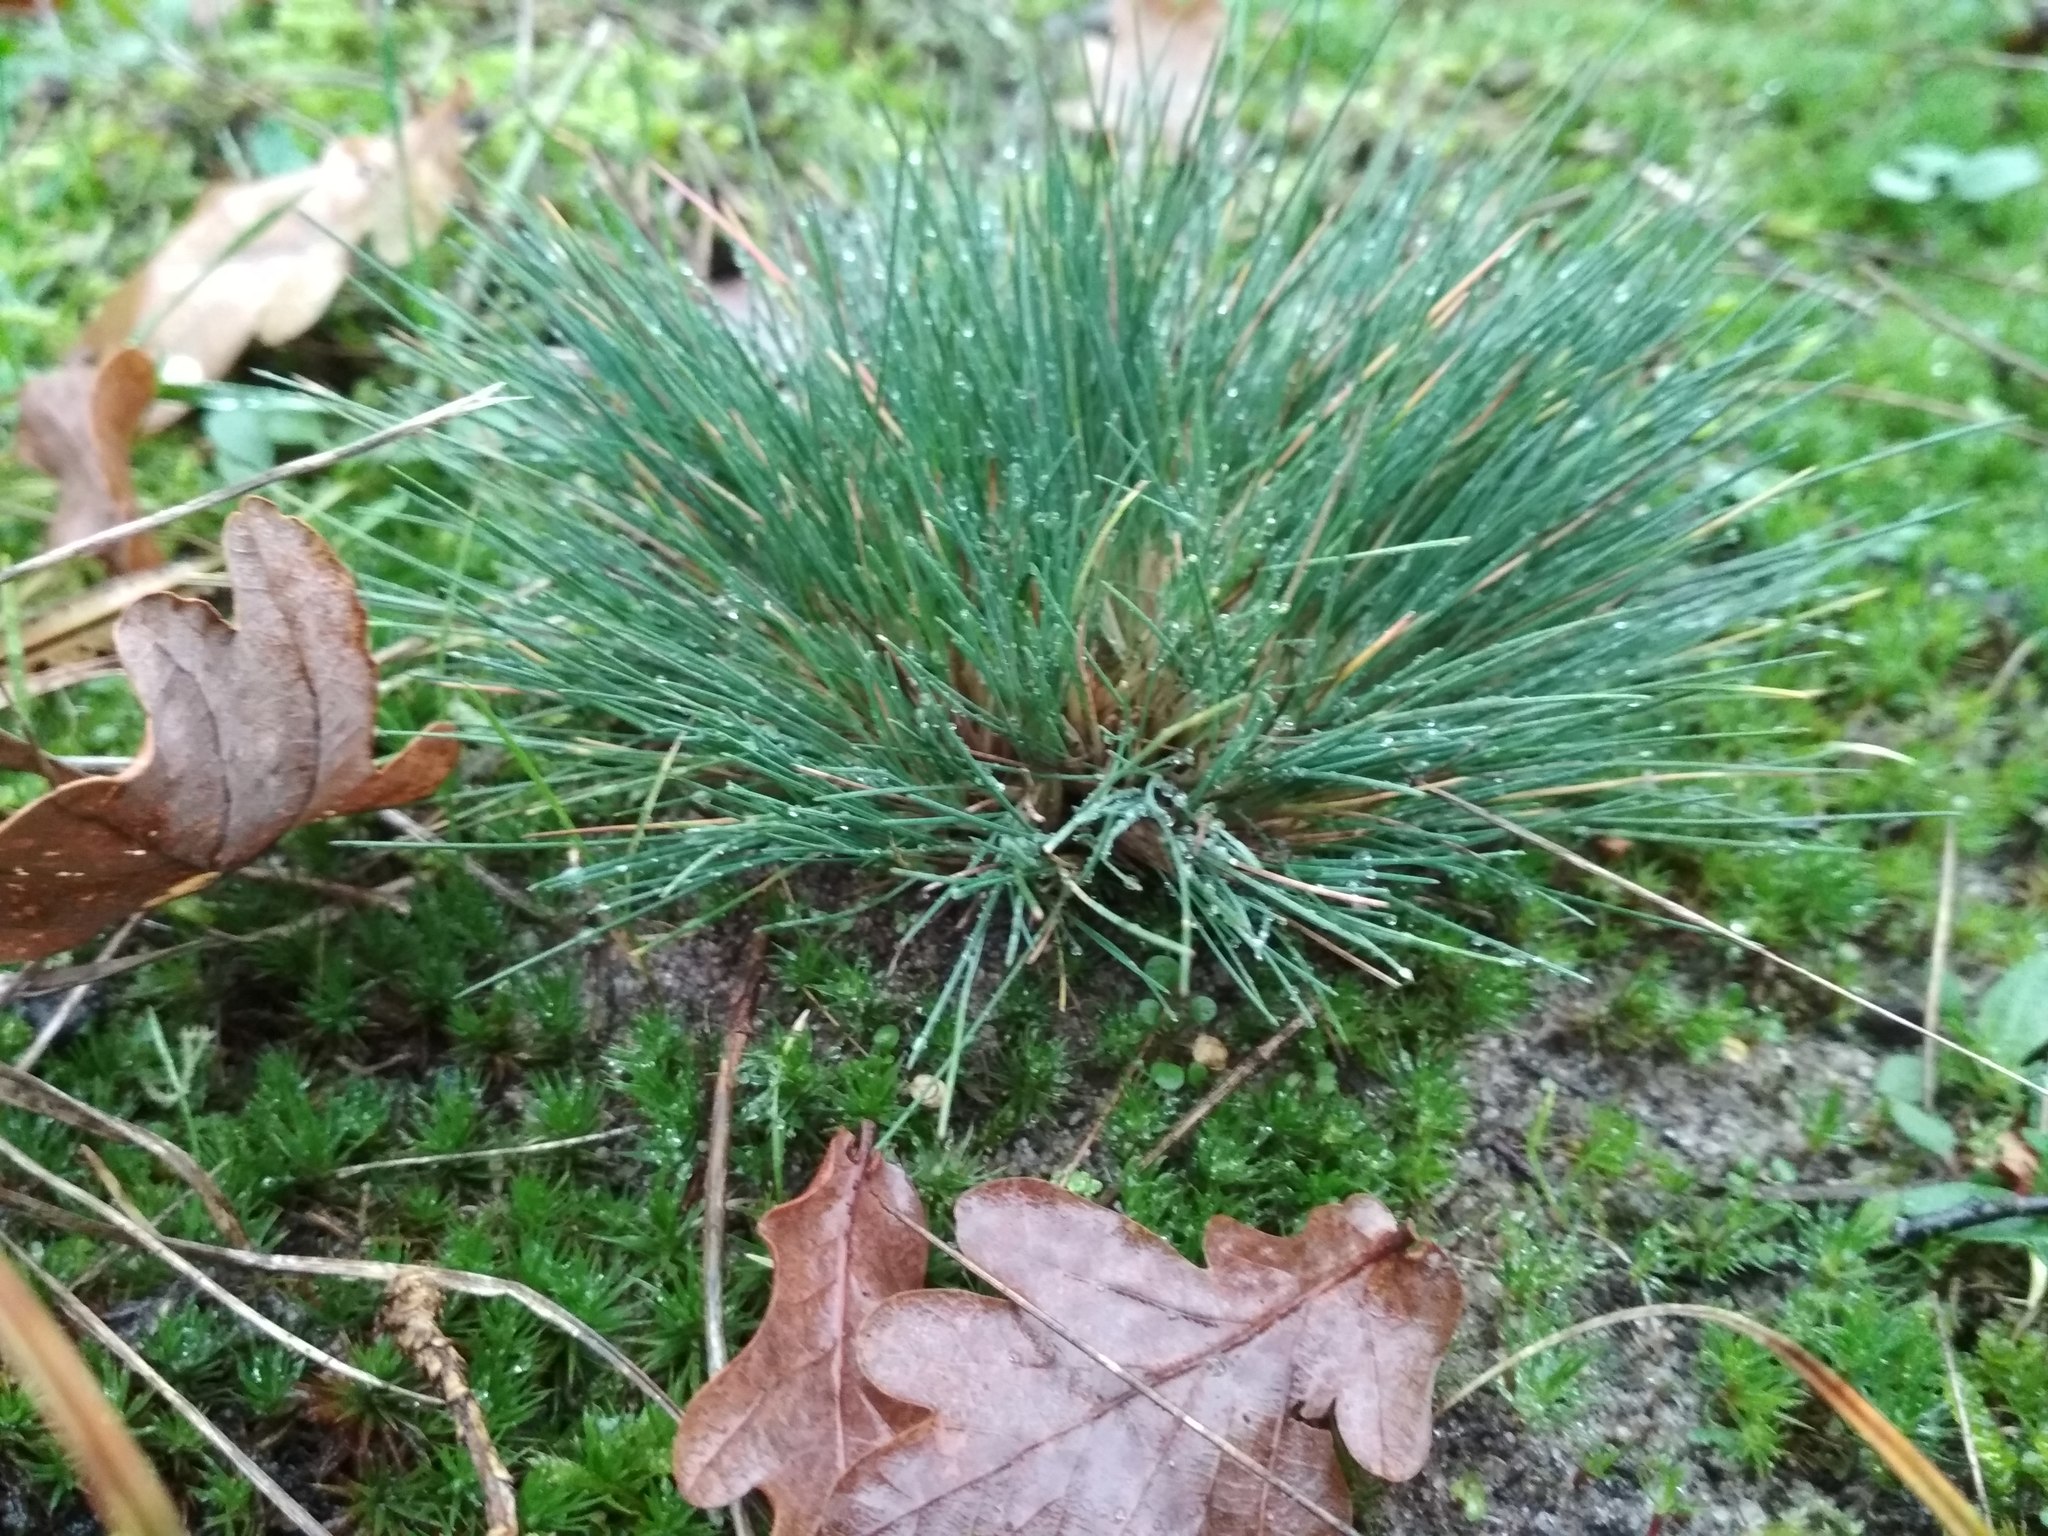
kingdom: Plantae
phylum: Tracheophyta
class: Liliopsida
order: Poales
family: Poaceae
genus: Corynephorus
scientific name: Corynephorus canescens
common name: Grey hair-grass
